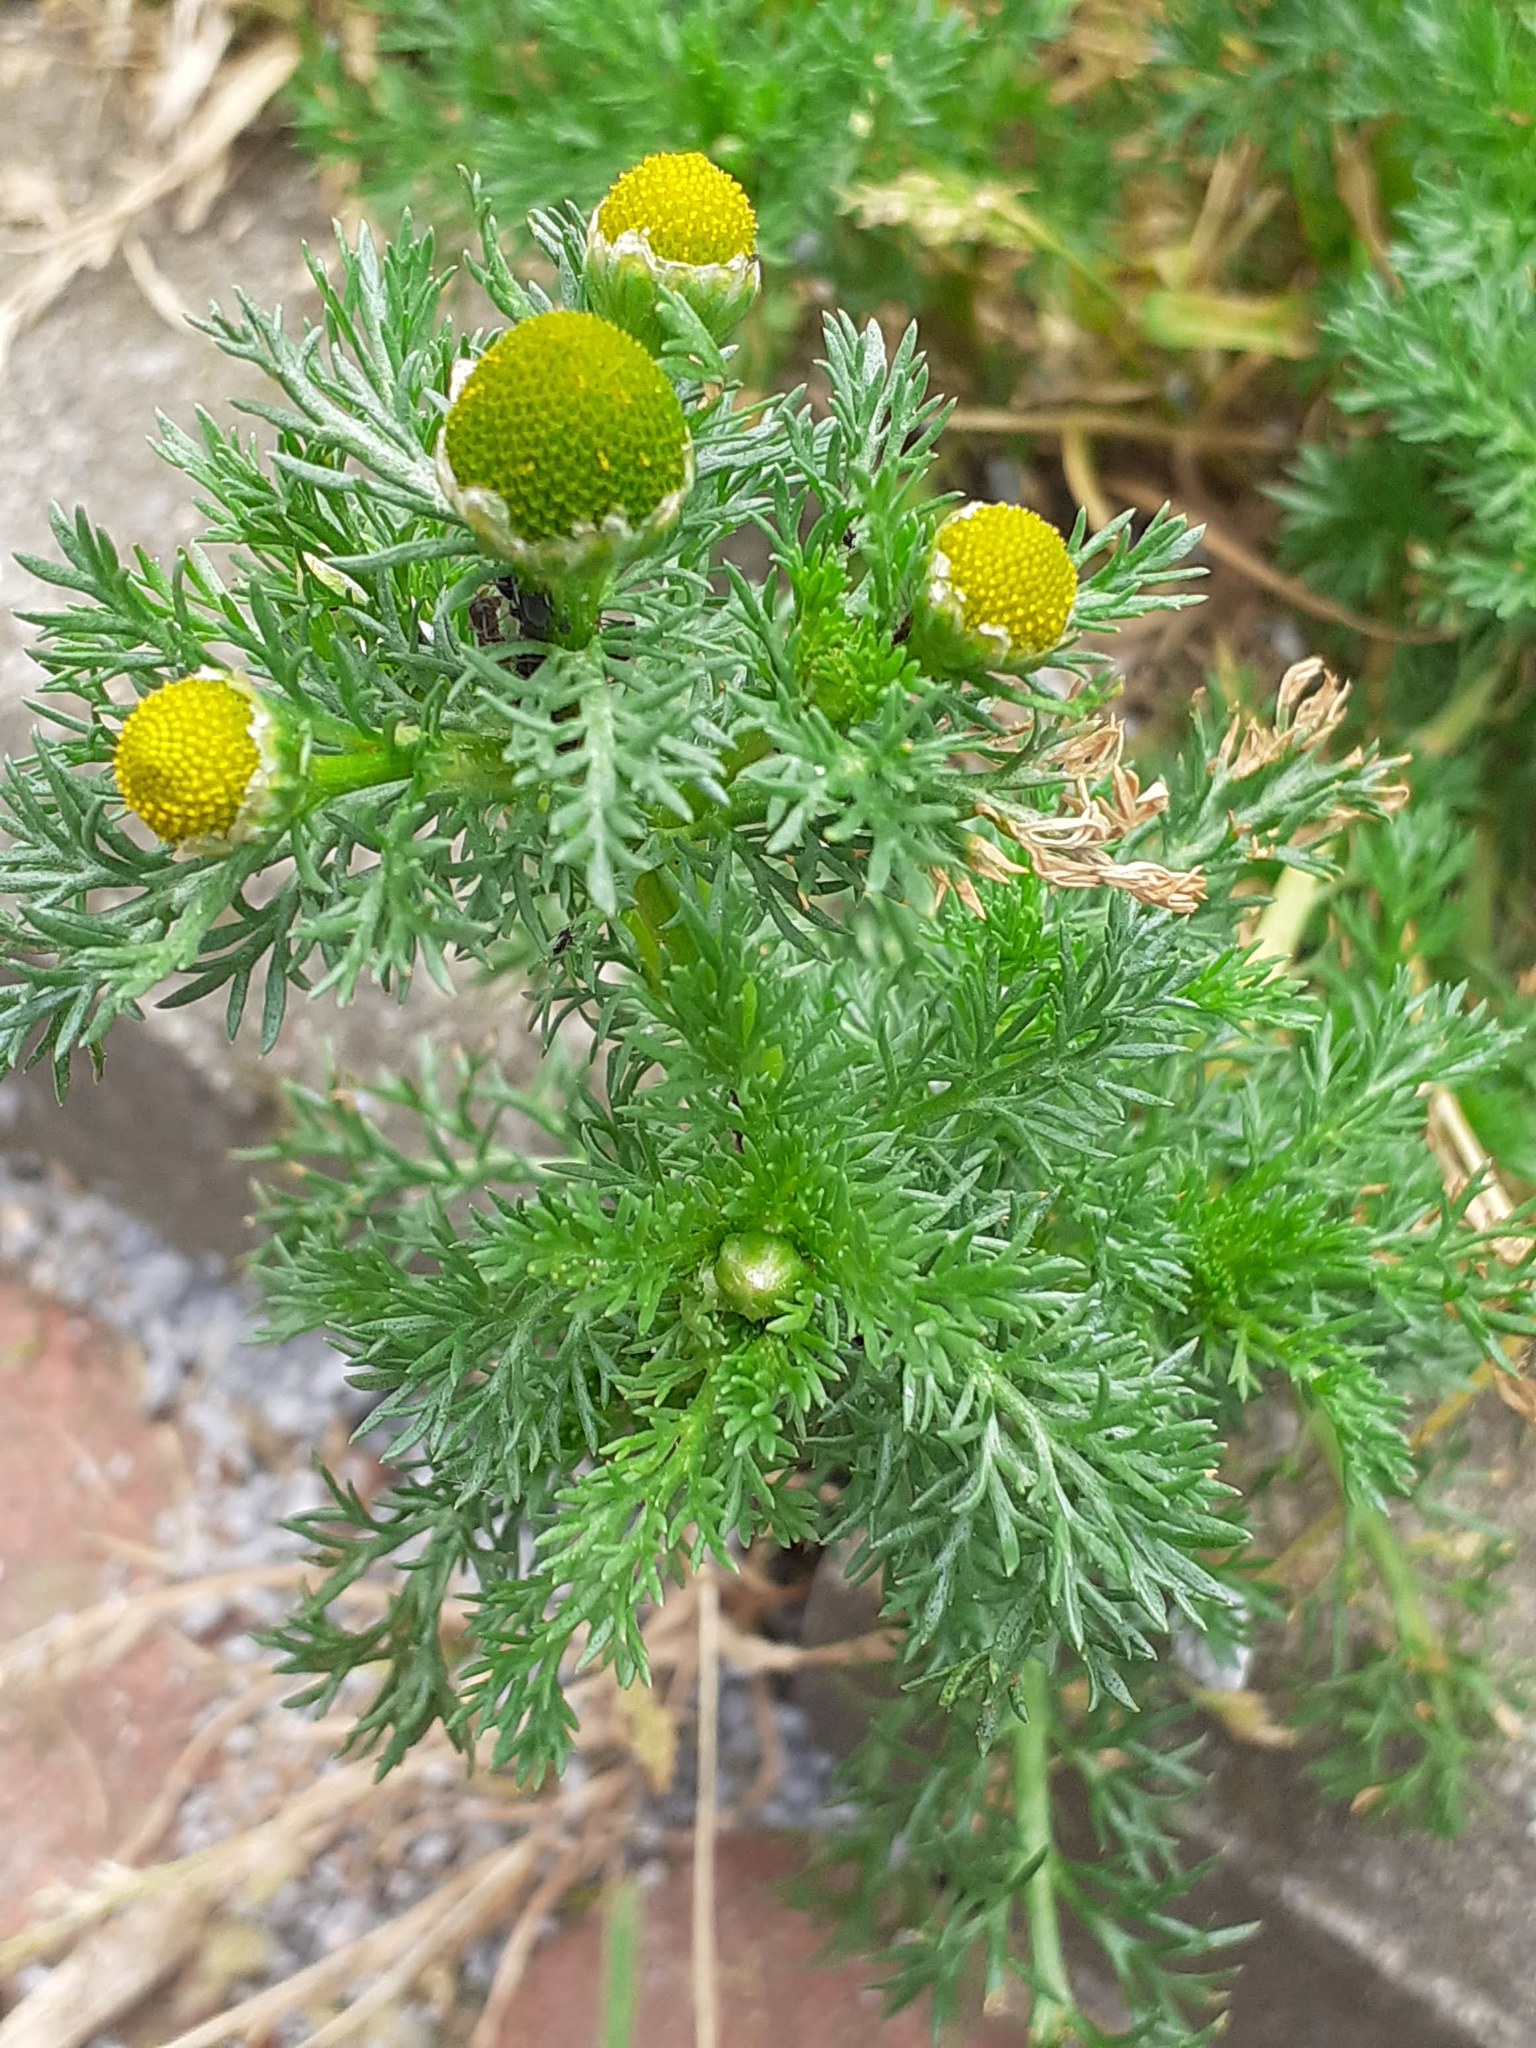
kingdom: Plantae
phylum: Tracheophyta
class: Magnoliopsida
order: Asterales
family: Asteraceae
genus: Matricaria
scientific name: Matricaria discoidea
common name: Disc mayweed
